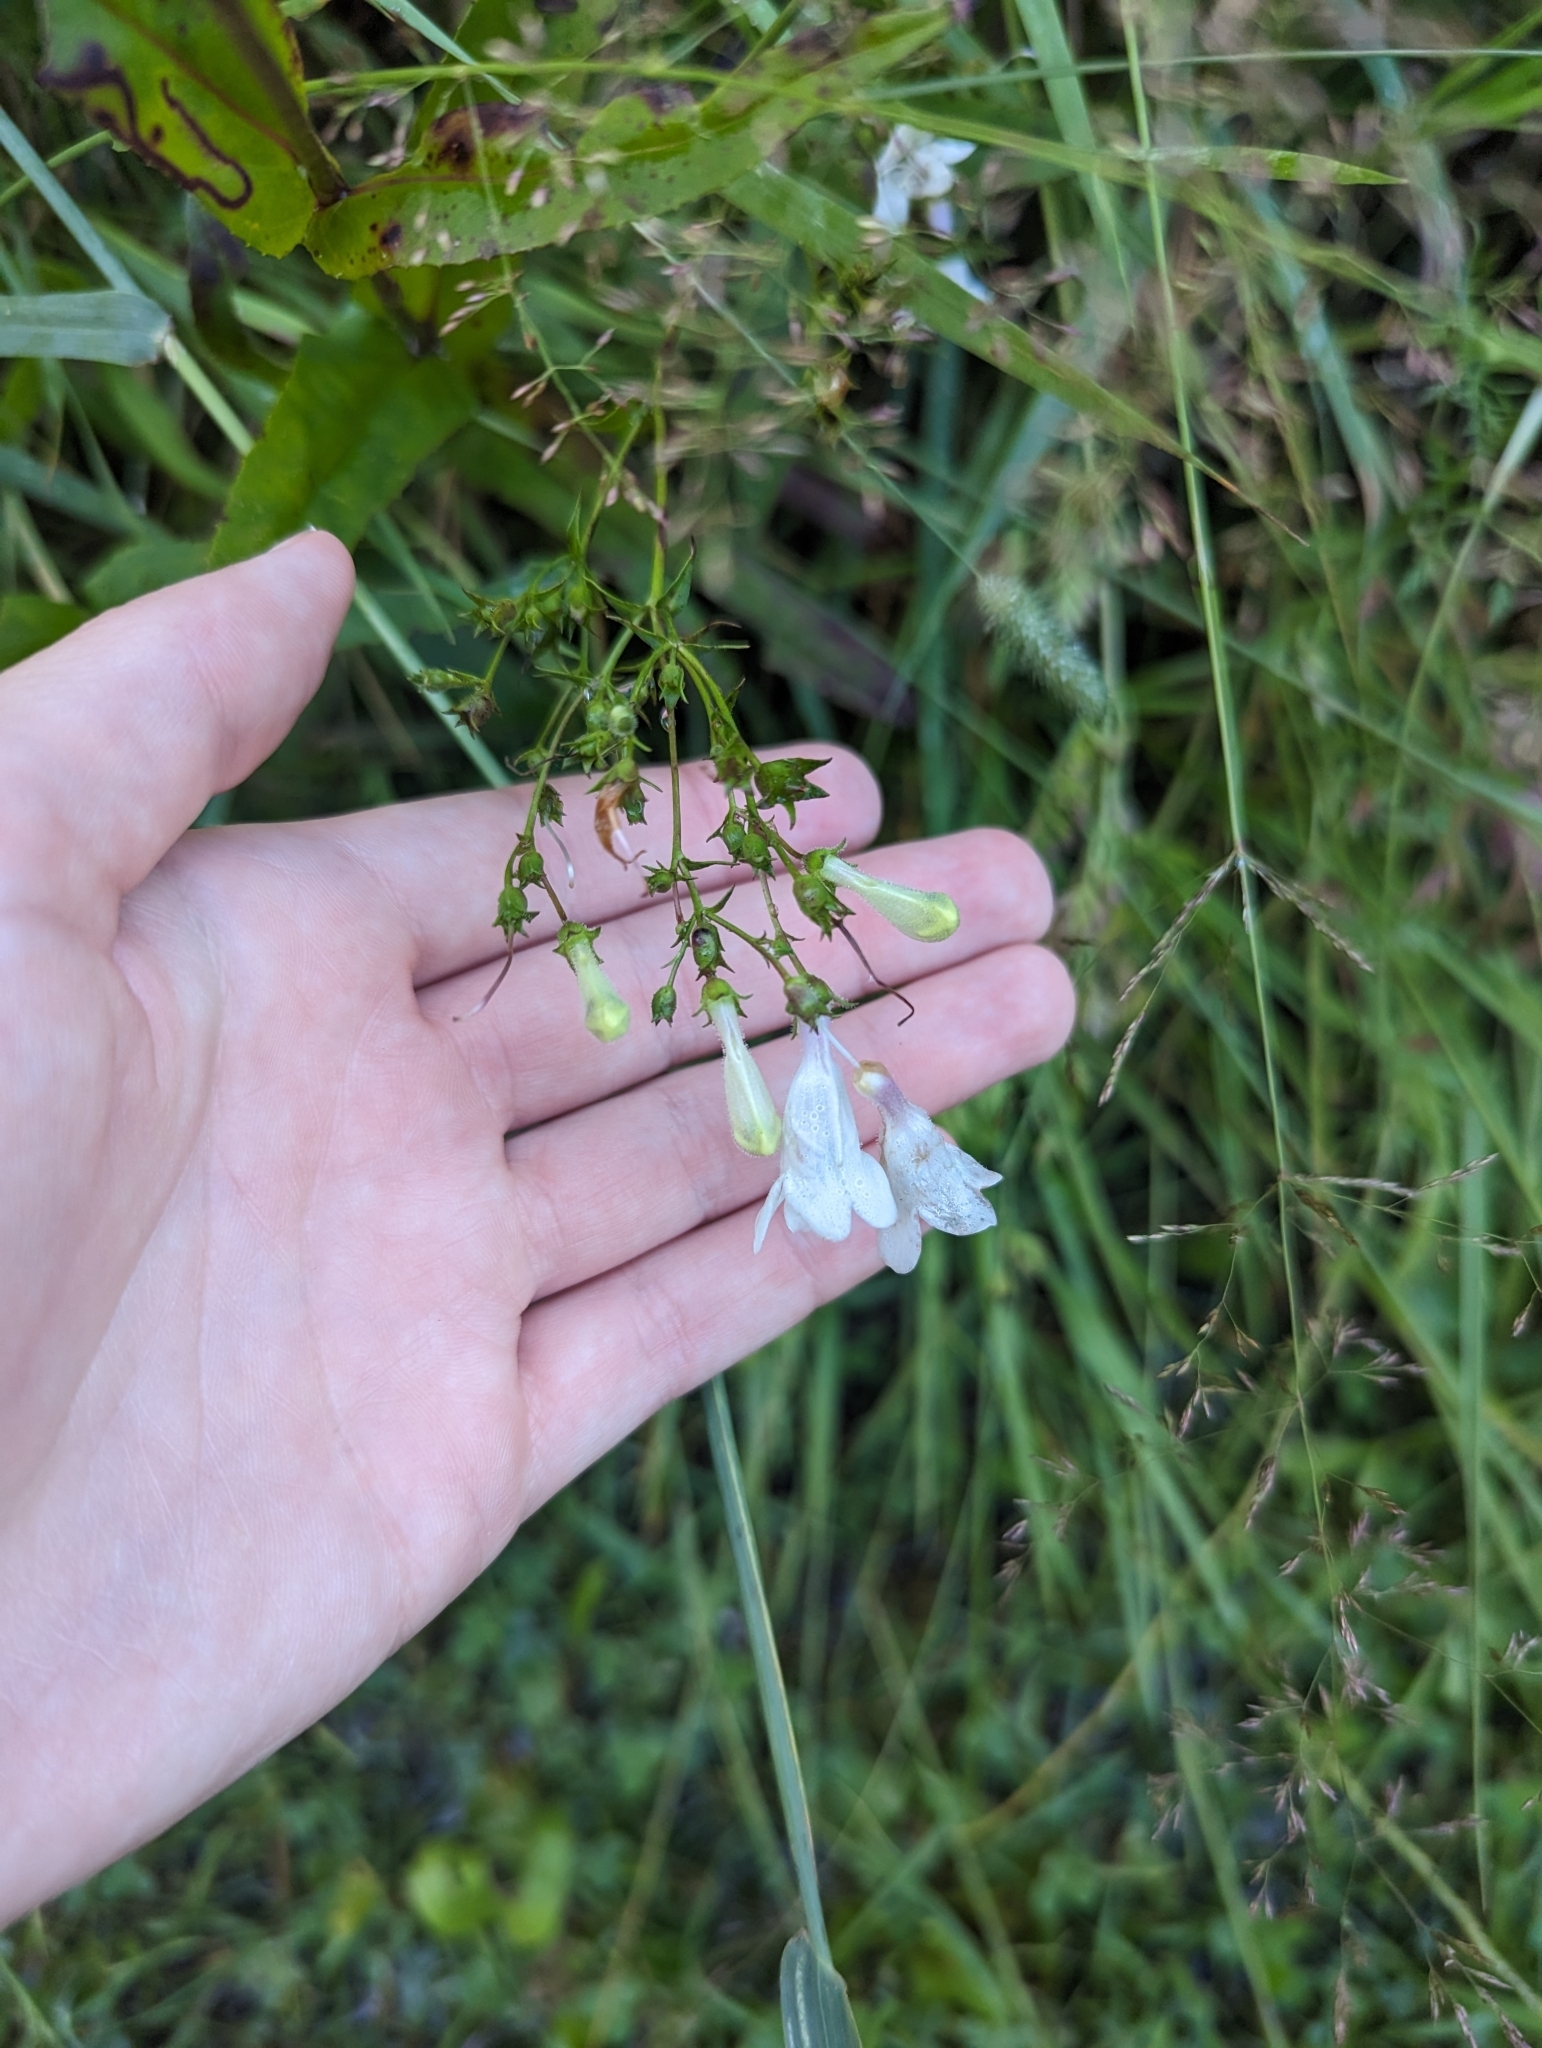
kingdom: Plantae
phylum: Tracheophyta
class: Magnoliopsida
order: Lamiales
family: Plantaginaceae
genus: Penstemon
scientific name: Penstemon digitalis
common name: Foxglove beardtongue
